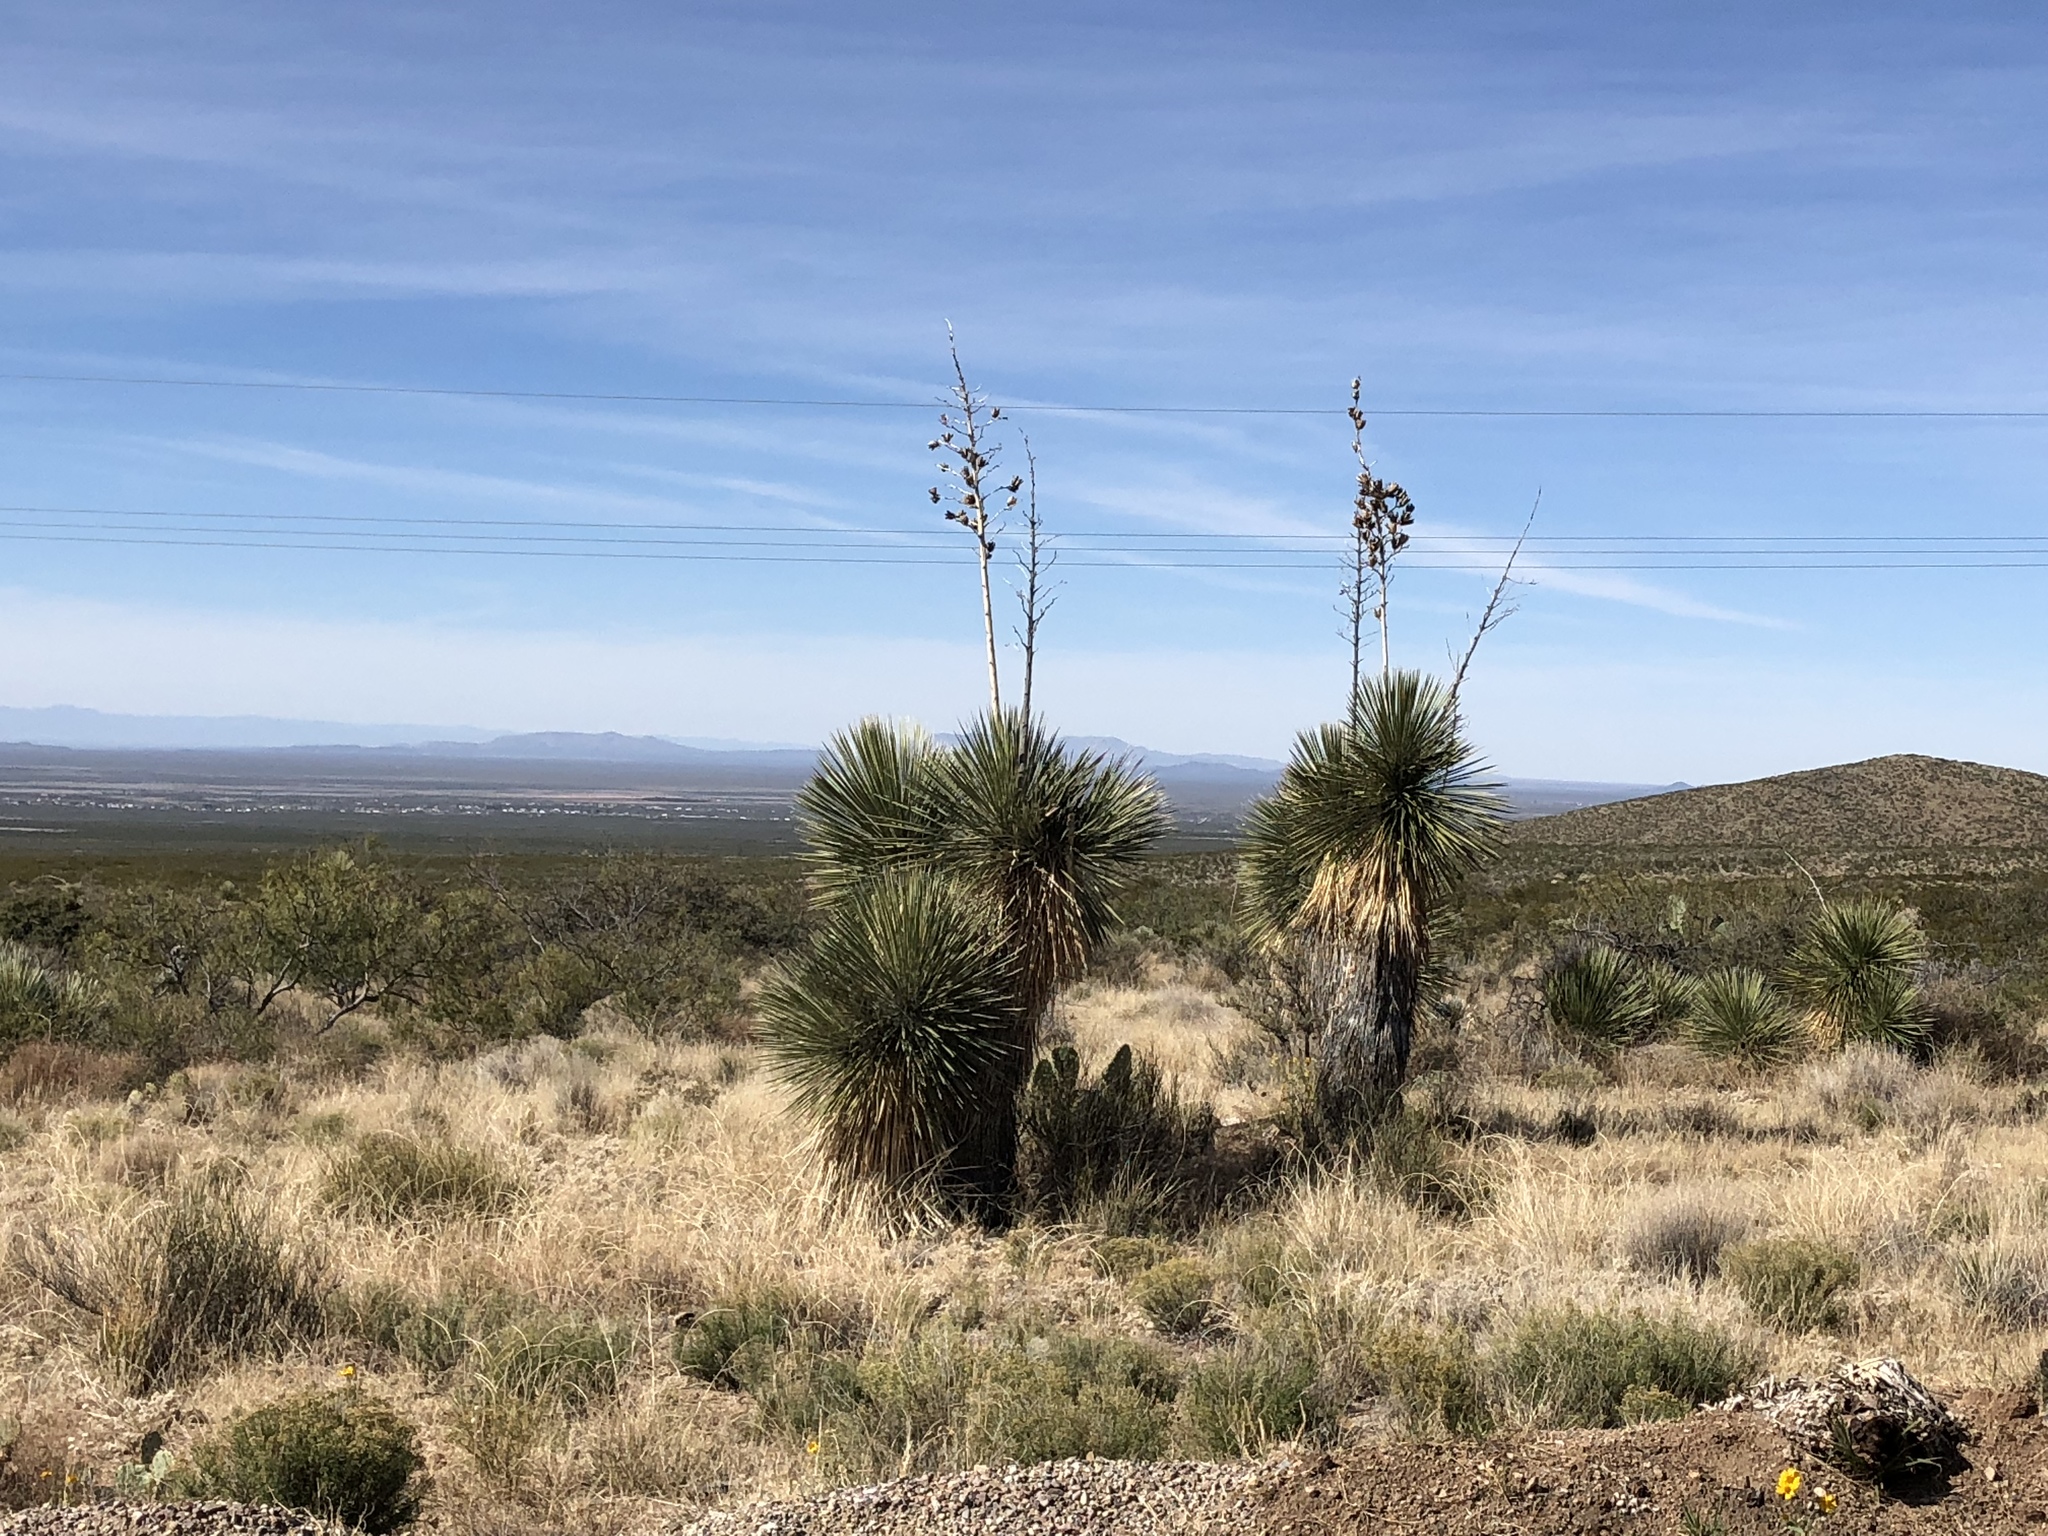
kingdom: Plantae
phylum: Tracheophyta
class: Liliopsida
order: Asparagales
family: Asparagaceae
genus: Yucca
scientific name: Yucca elata
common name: Palmella
